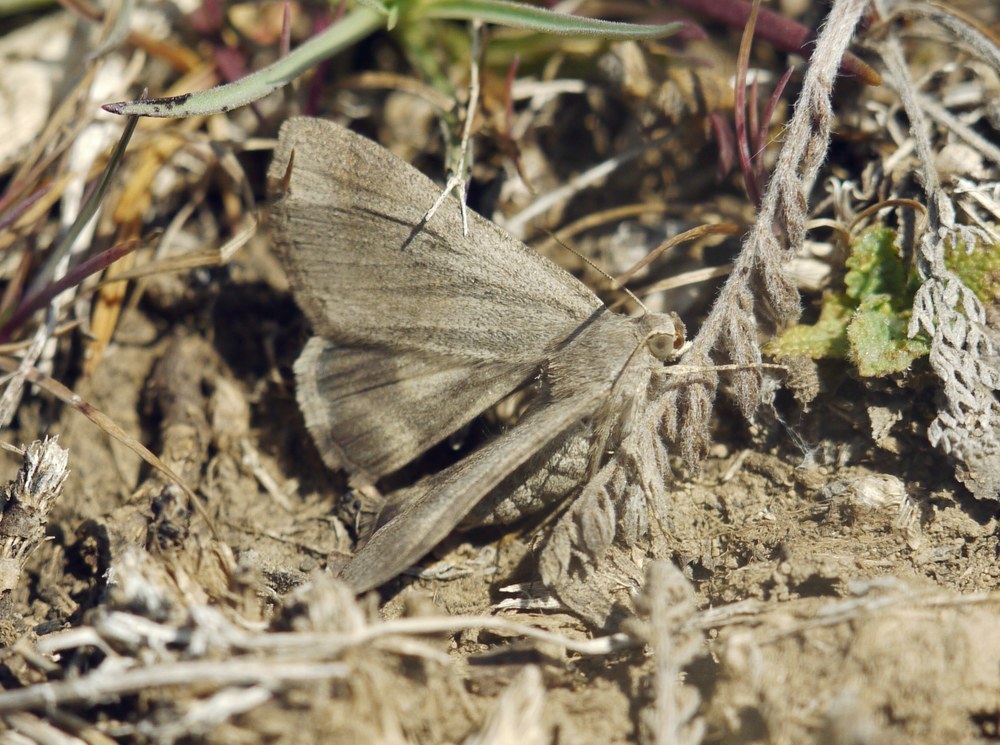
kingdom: Animalia
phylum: Arthropoda
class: Insecta
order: Lepidoptera
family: Erebidae
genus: Drasteria
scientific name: Drasteria caucasica
